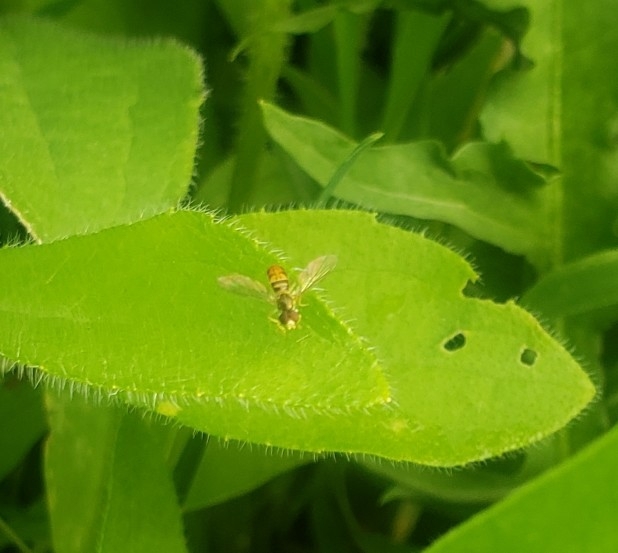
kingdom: Animalia
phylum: Arthropoda
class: Insecta
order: Diptera
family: Syrphidae
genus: Toxomerus
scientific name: Toxomerus marginatus
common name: Syrphid fly
